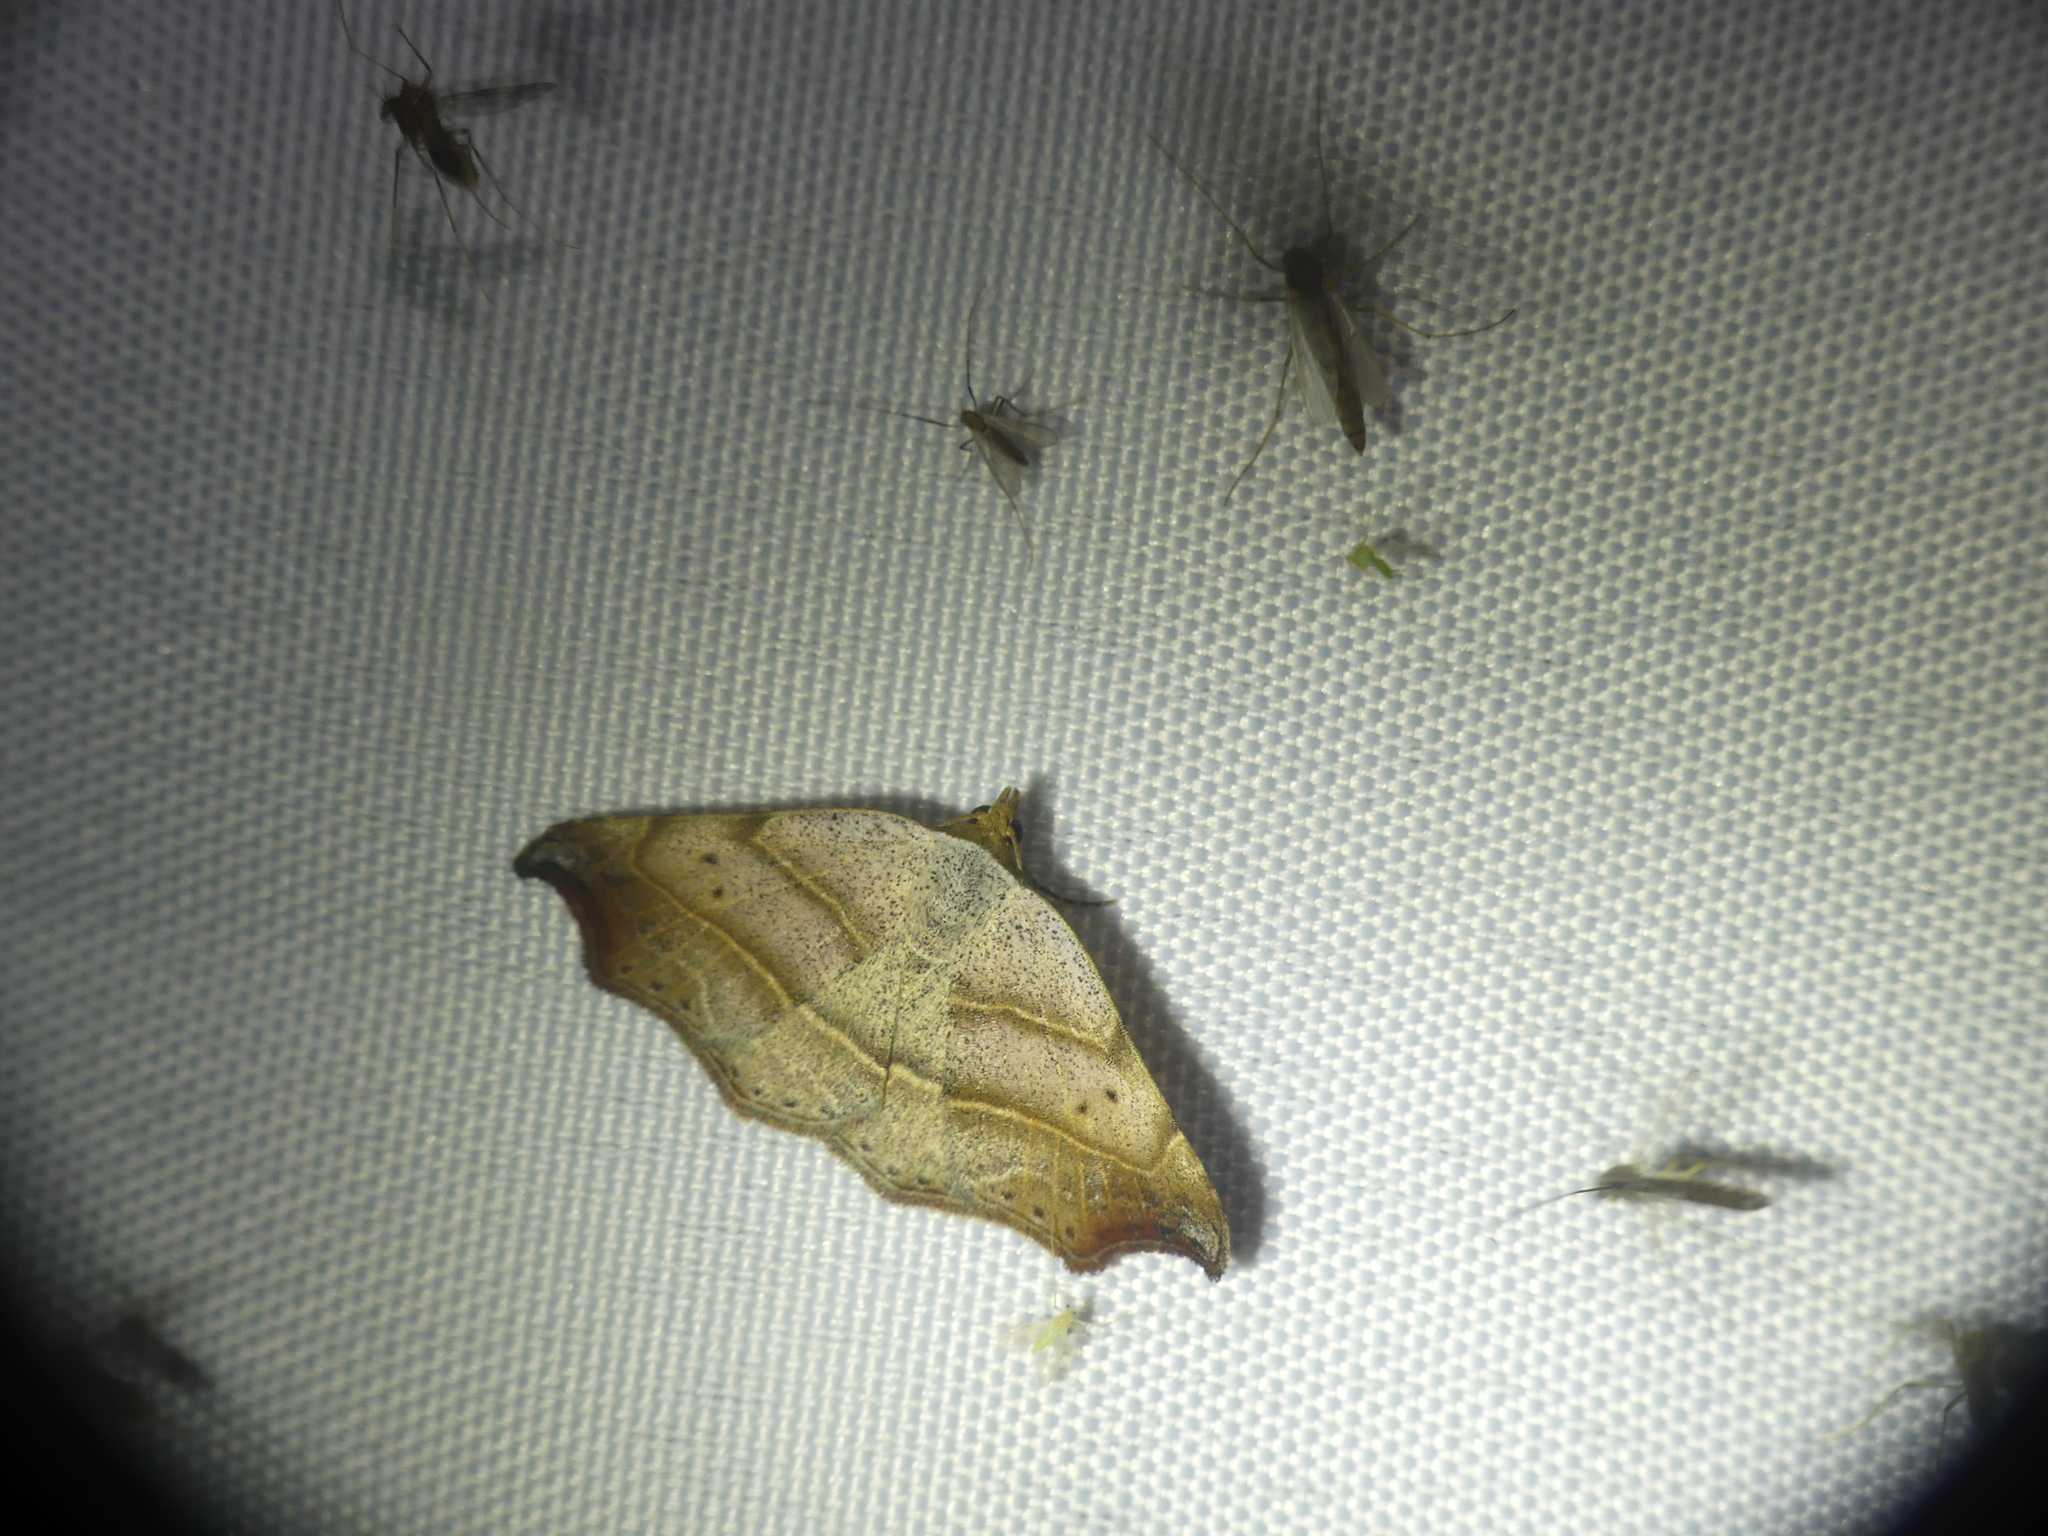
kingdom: Animalia
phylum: Arthropoda
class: Insecta
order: Lepidoptera
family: Erebidae
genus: Laspeyria
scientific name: Laspeyria flexula
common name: Beautiful hook-tip
